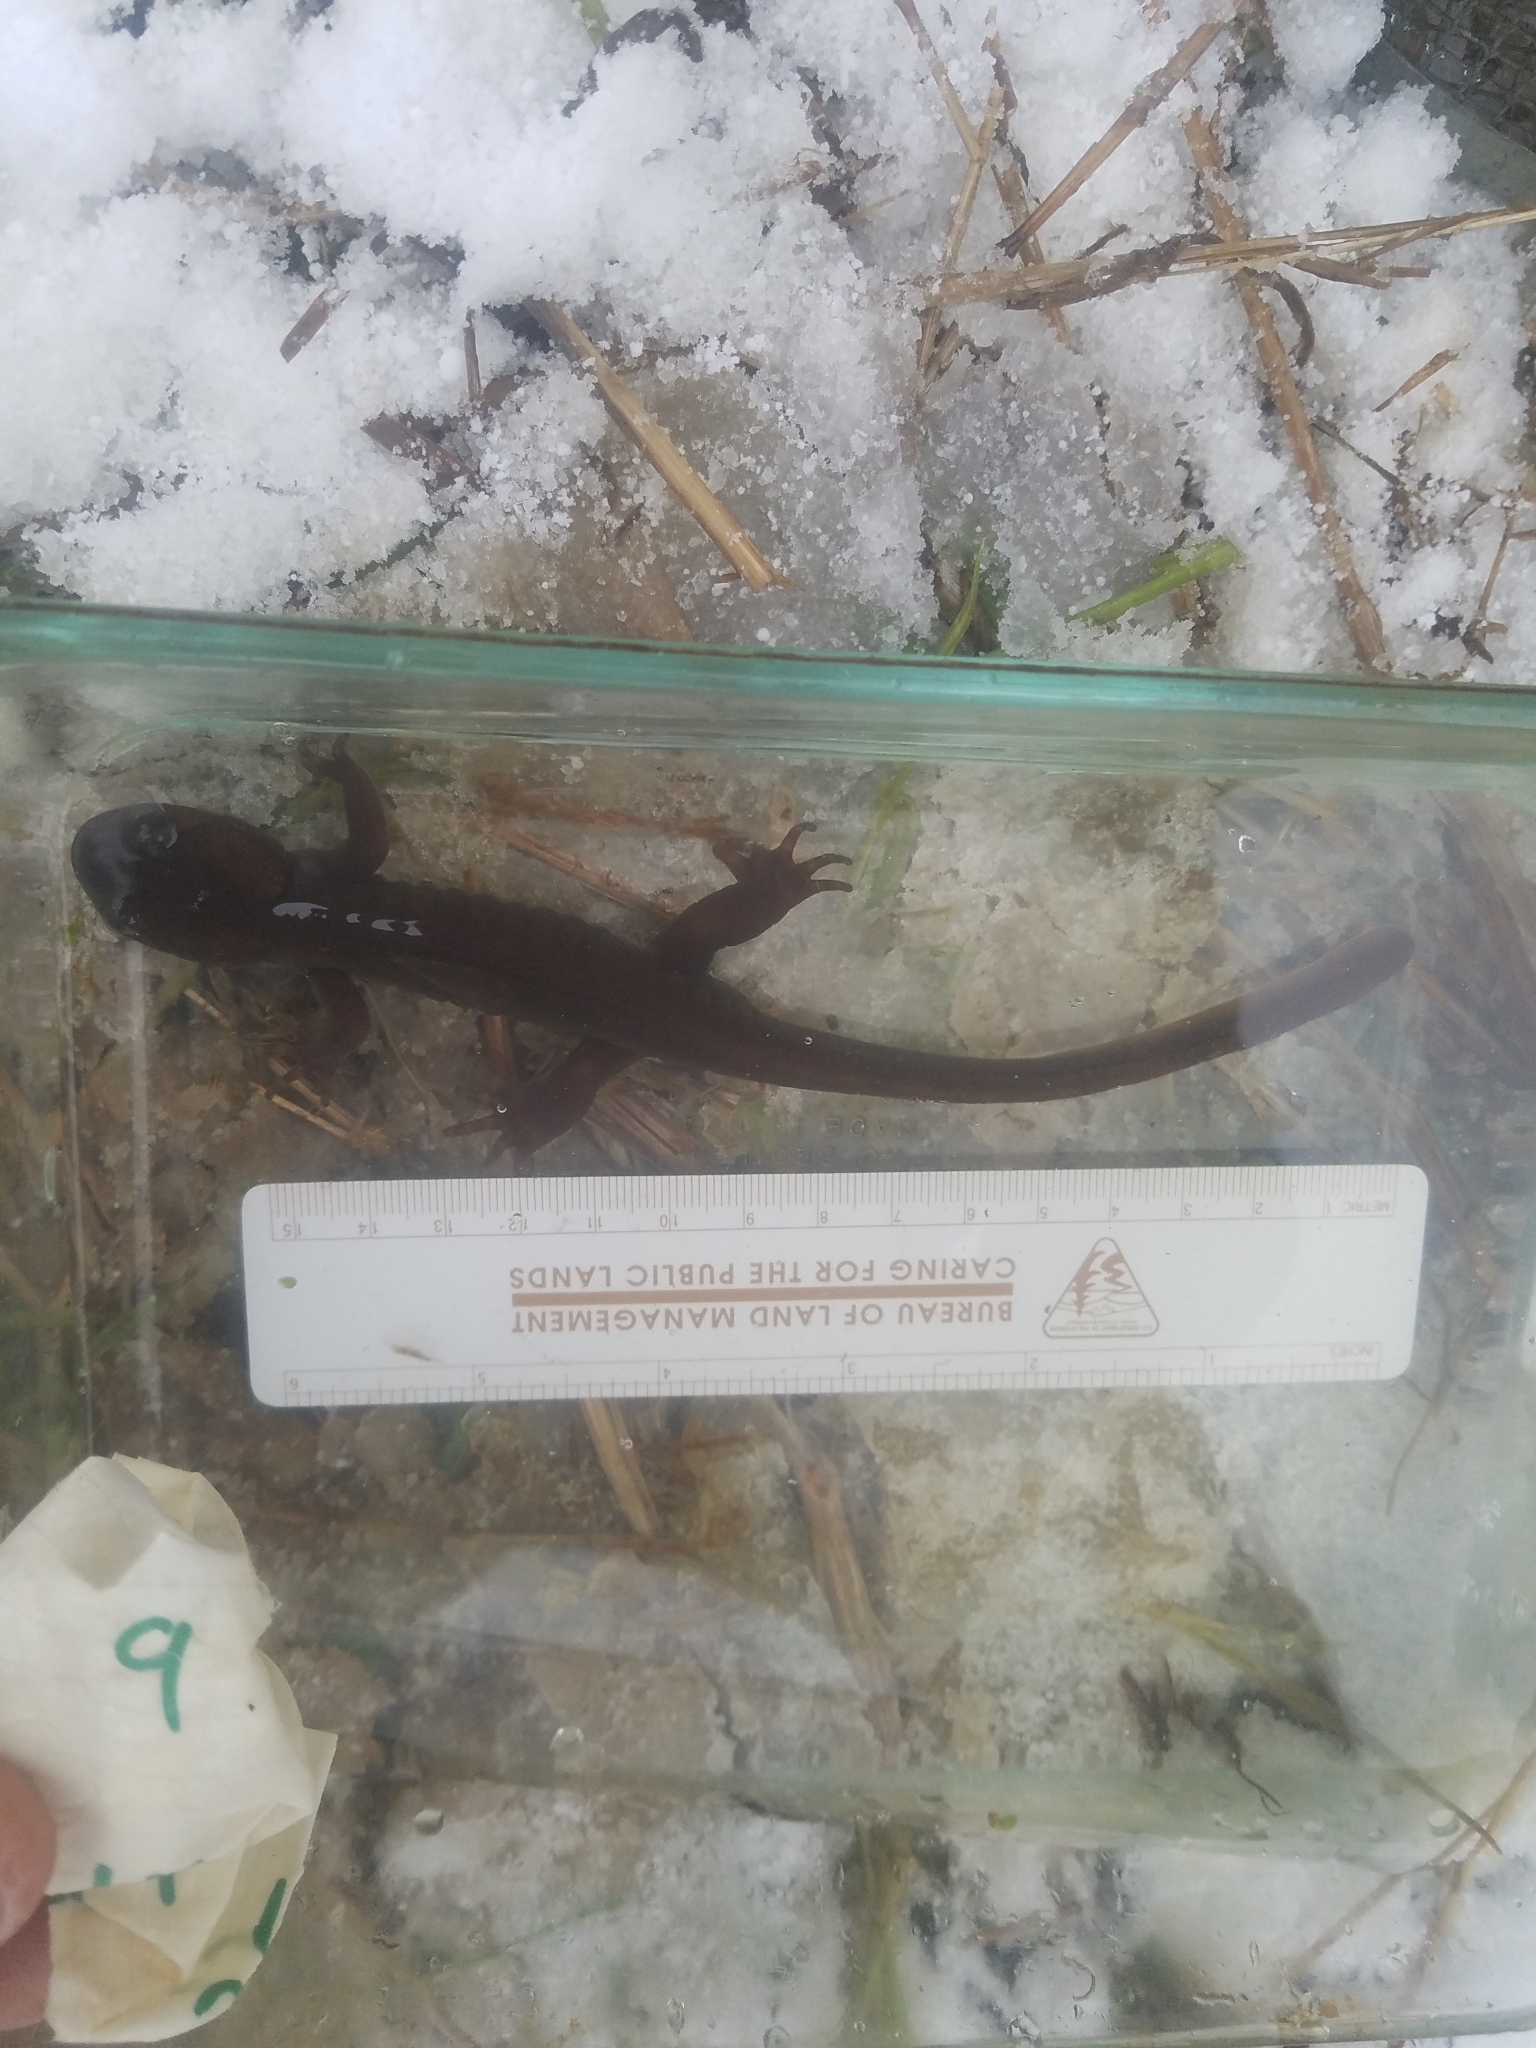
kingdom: Animalia
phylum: Chordata
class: Amphibia
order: Caudata
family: Ambystomatidae
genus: Ambystoma
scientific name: Ambystoma gracile
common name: Northwestern salamander
